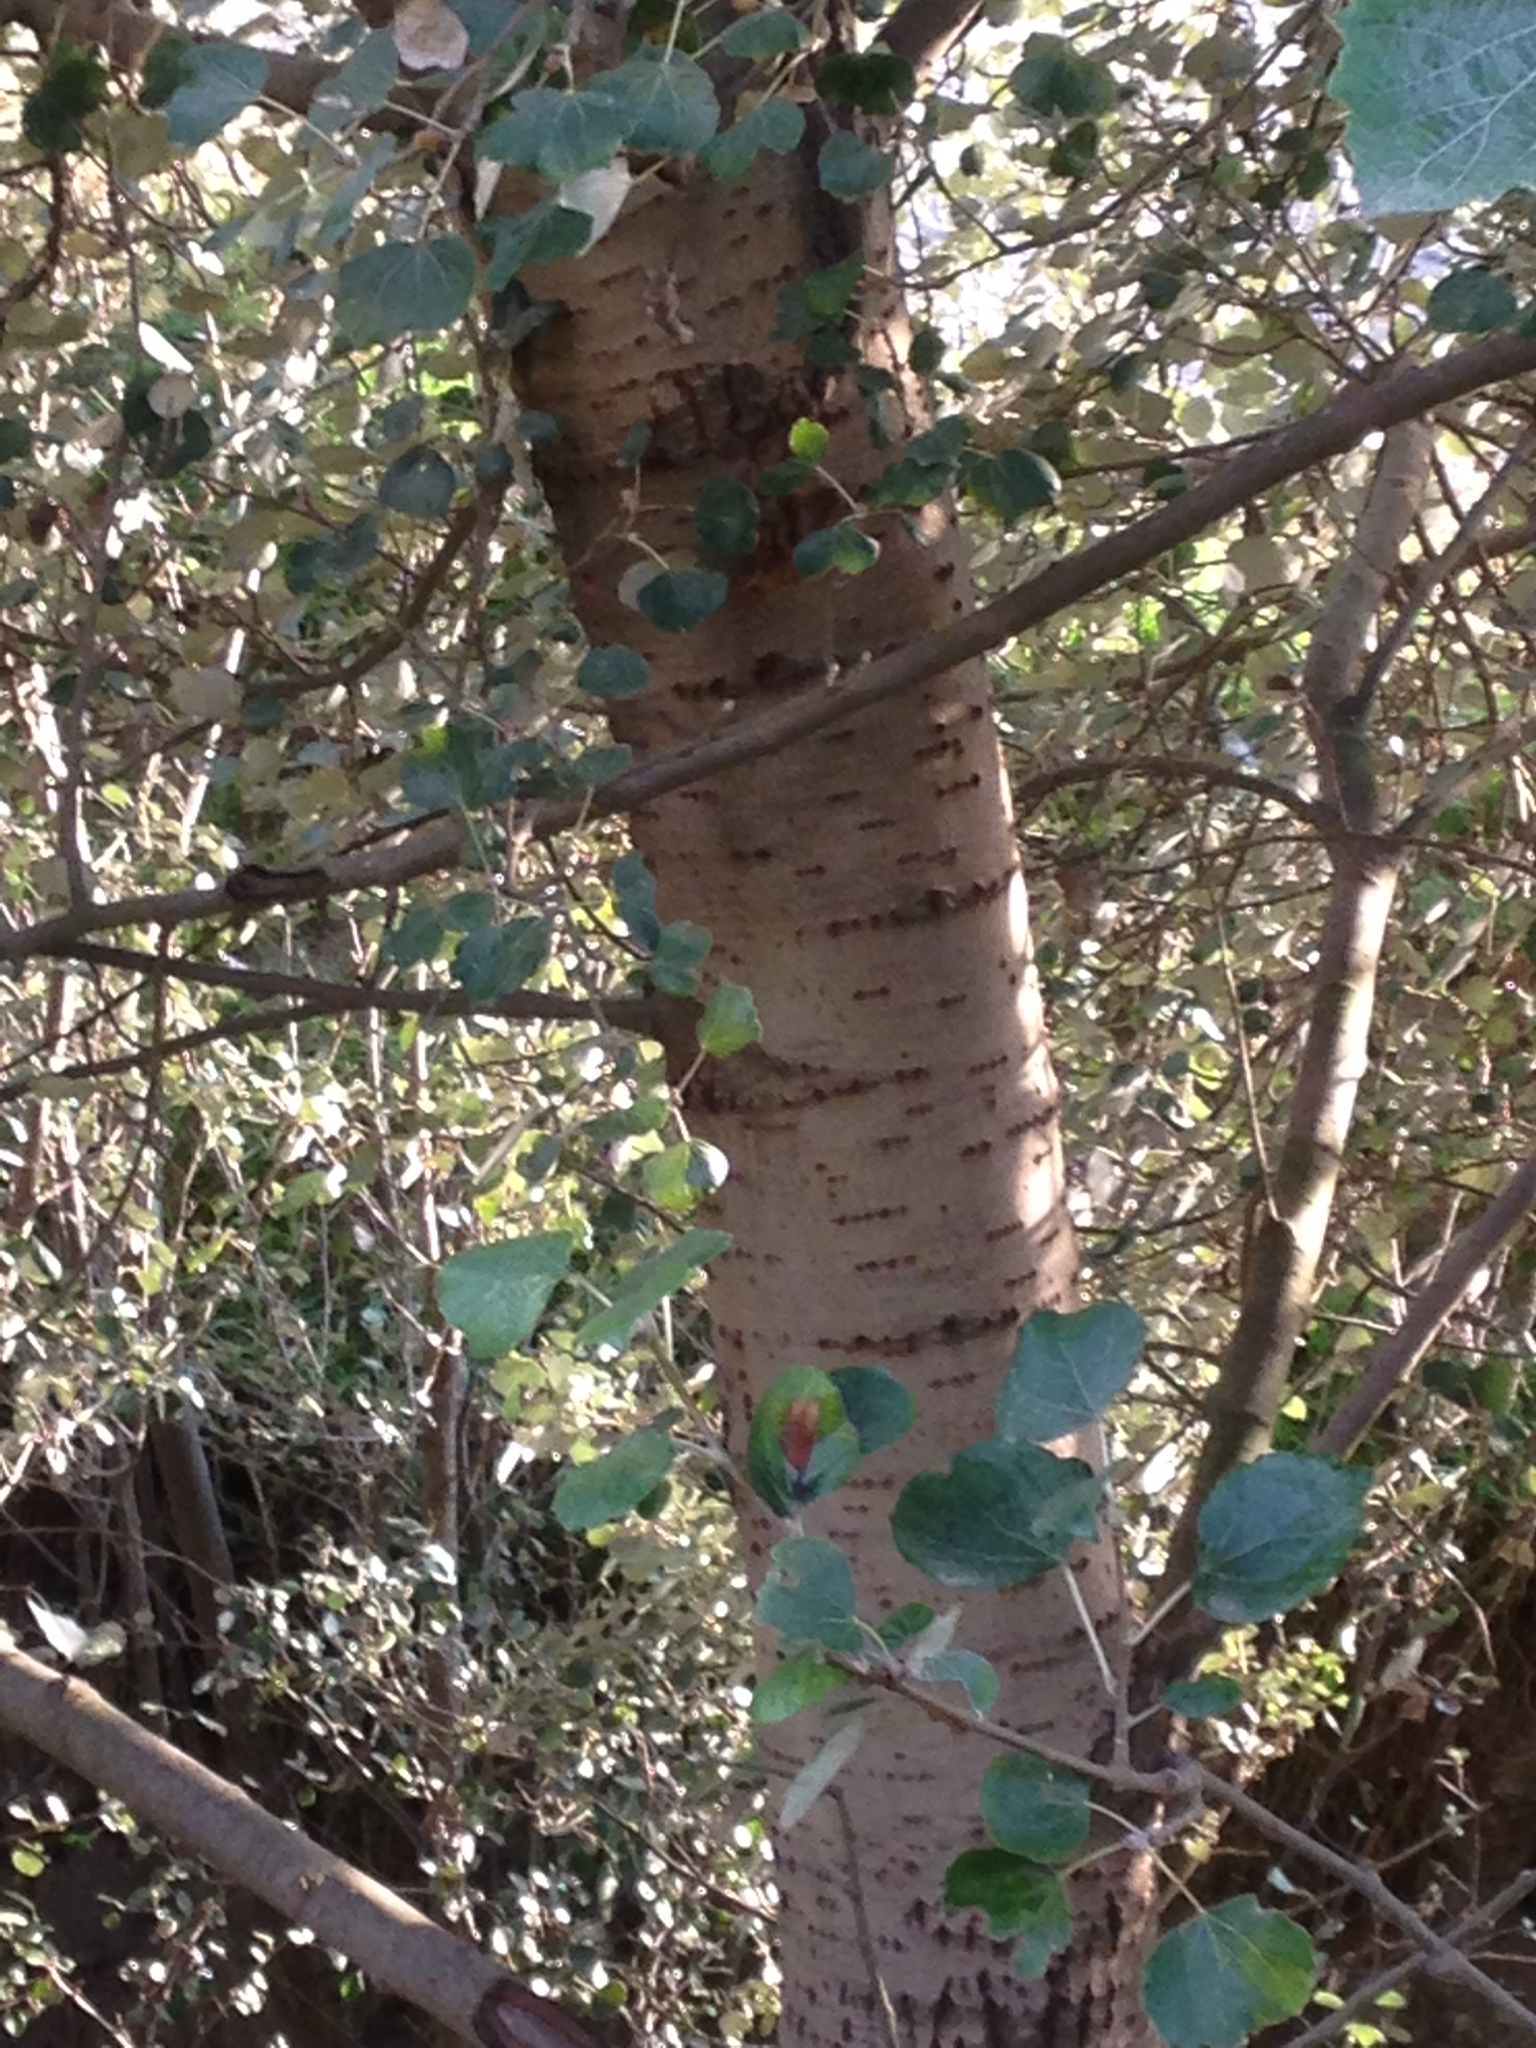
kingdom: Plantae
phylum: Tracheophyta
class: Magnoliopsida
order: Malpighiales
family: Salicaceae
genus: Populus
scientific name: Populus alba
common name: White poplar
